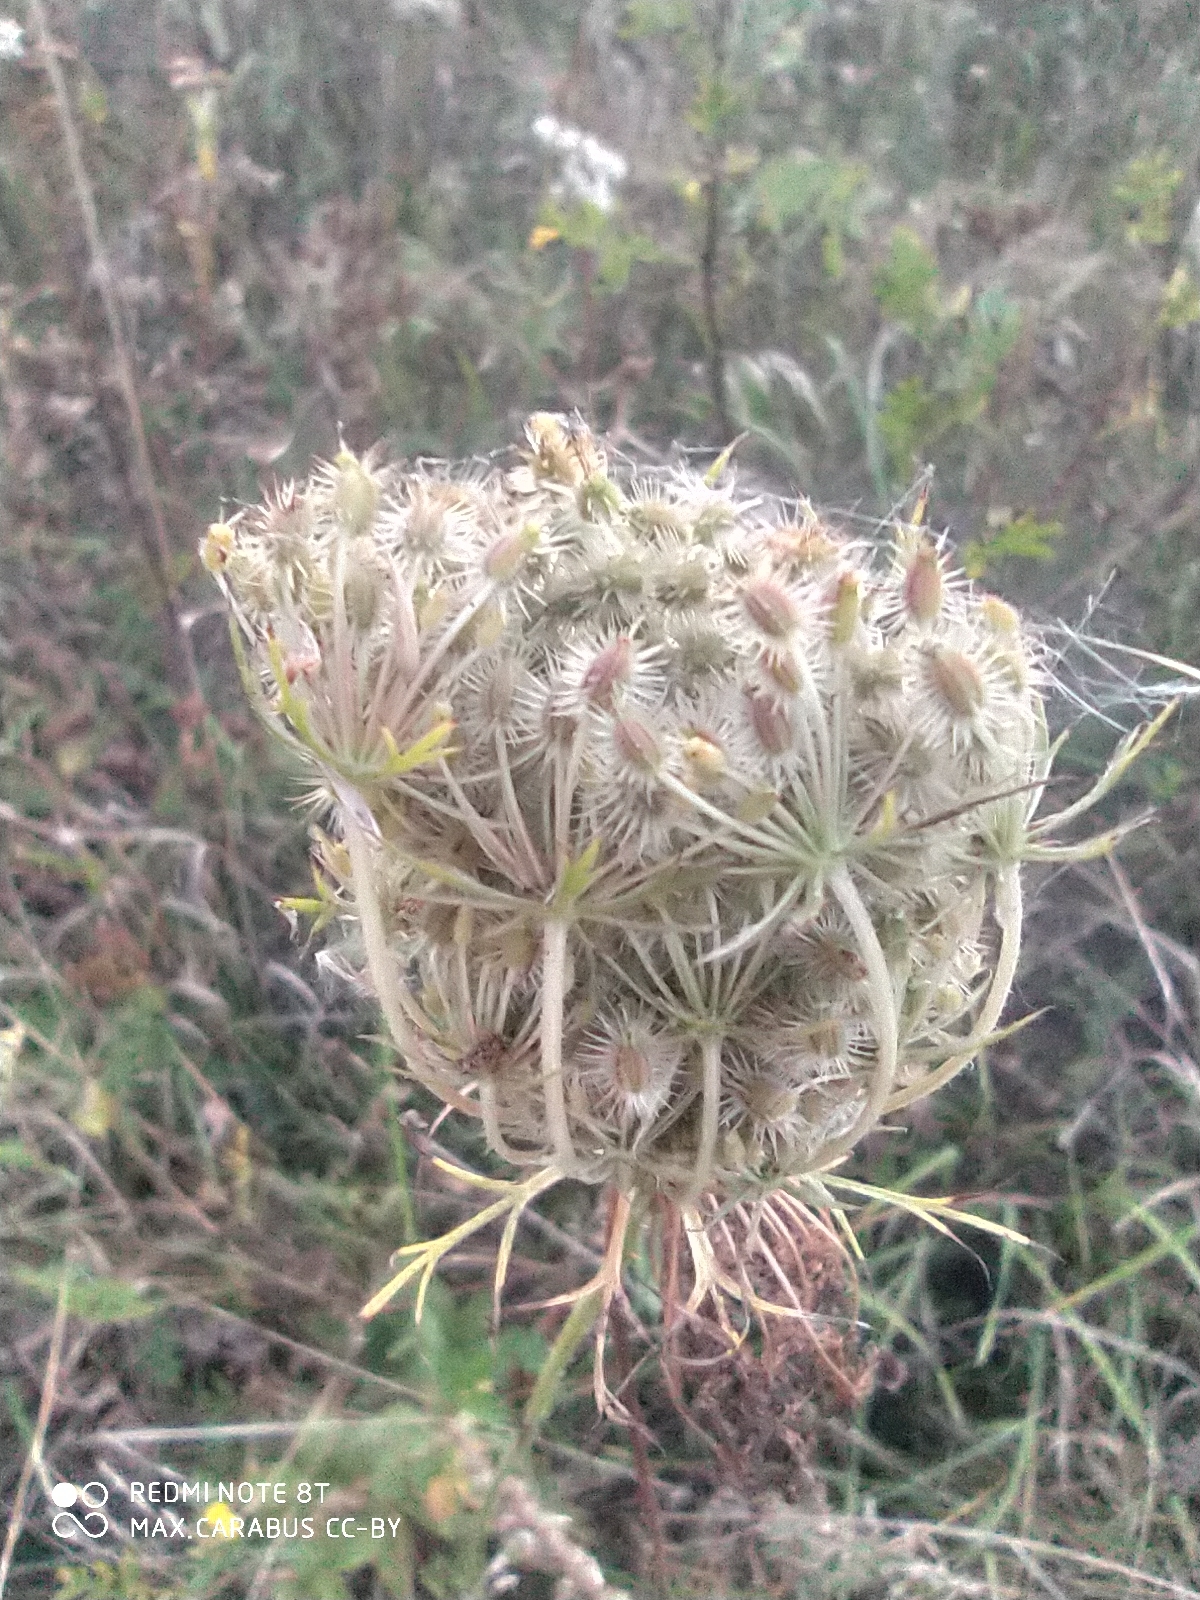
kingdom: Plantae
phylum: Tracheophyta
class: Magnoliopsida
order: Apiales
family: Apiaceae
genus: Daucus
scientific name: Daucus carota
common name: Wild carrot
